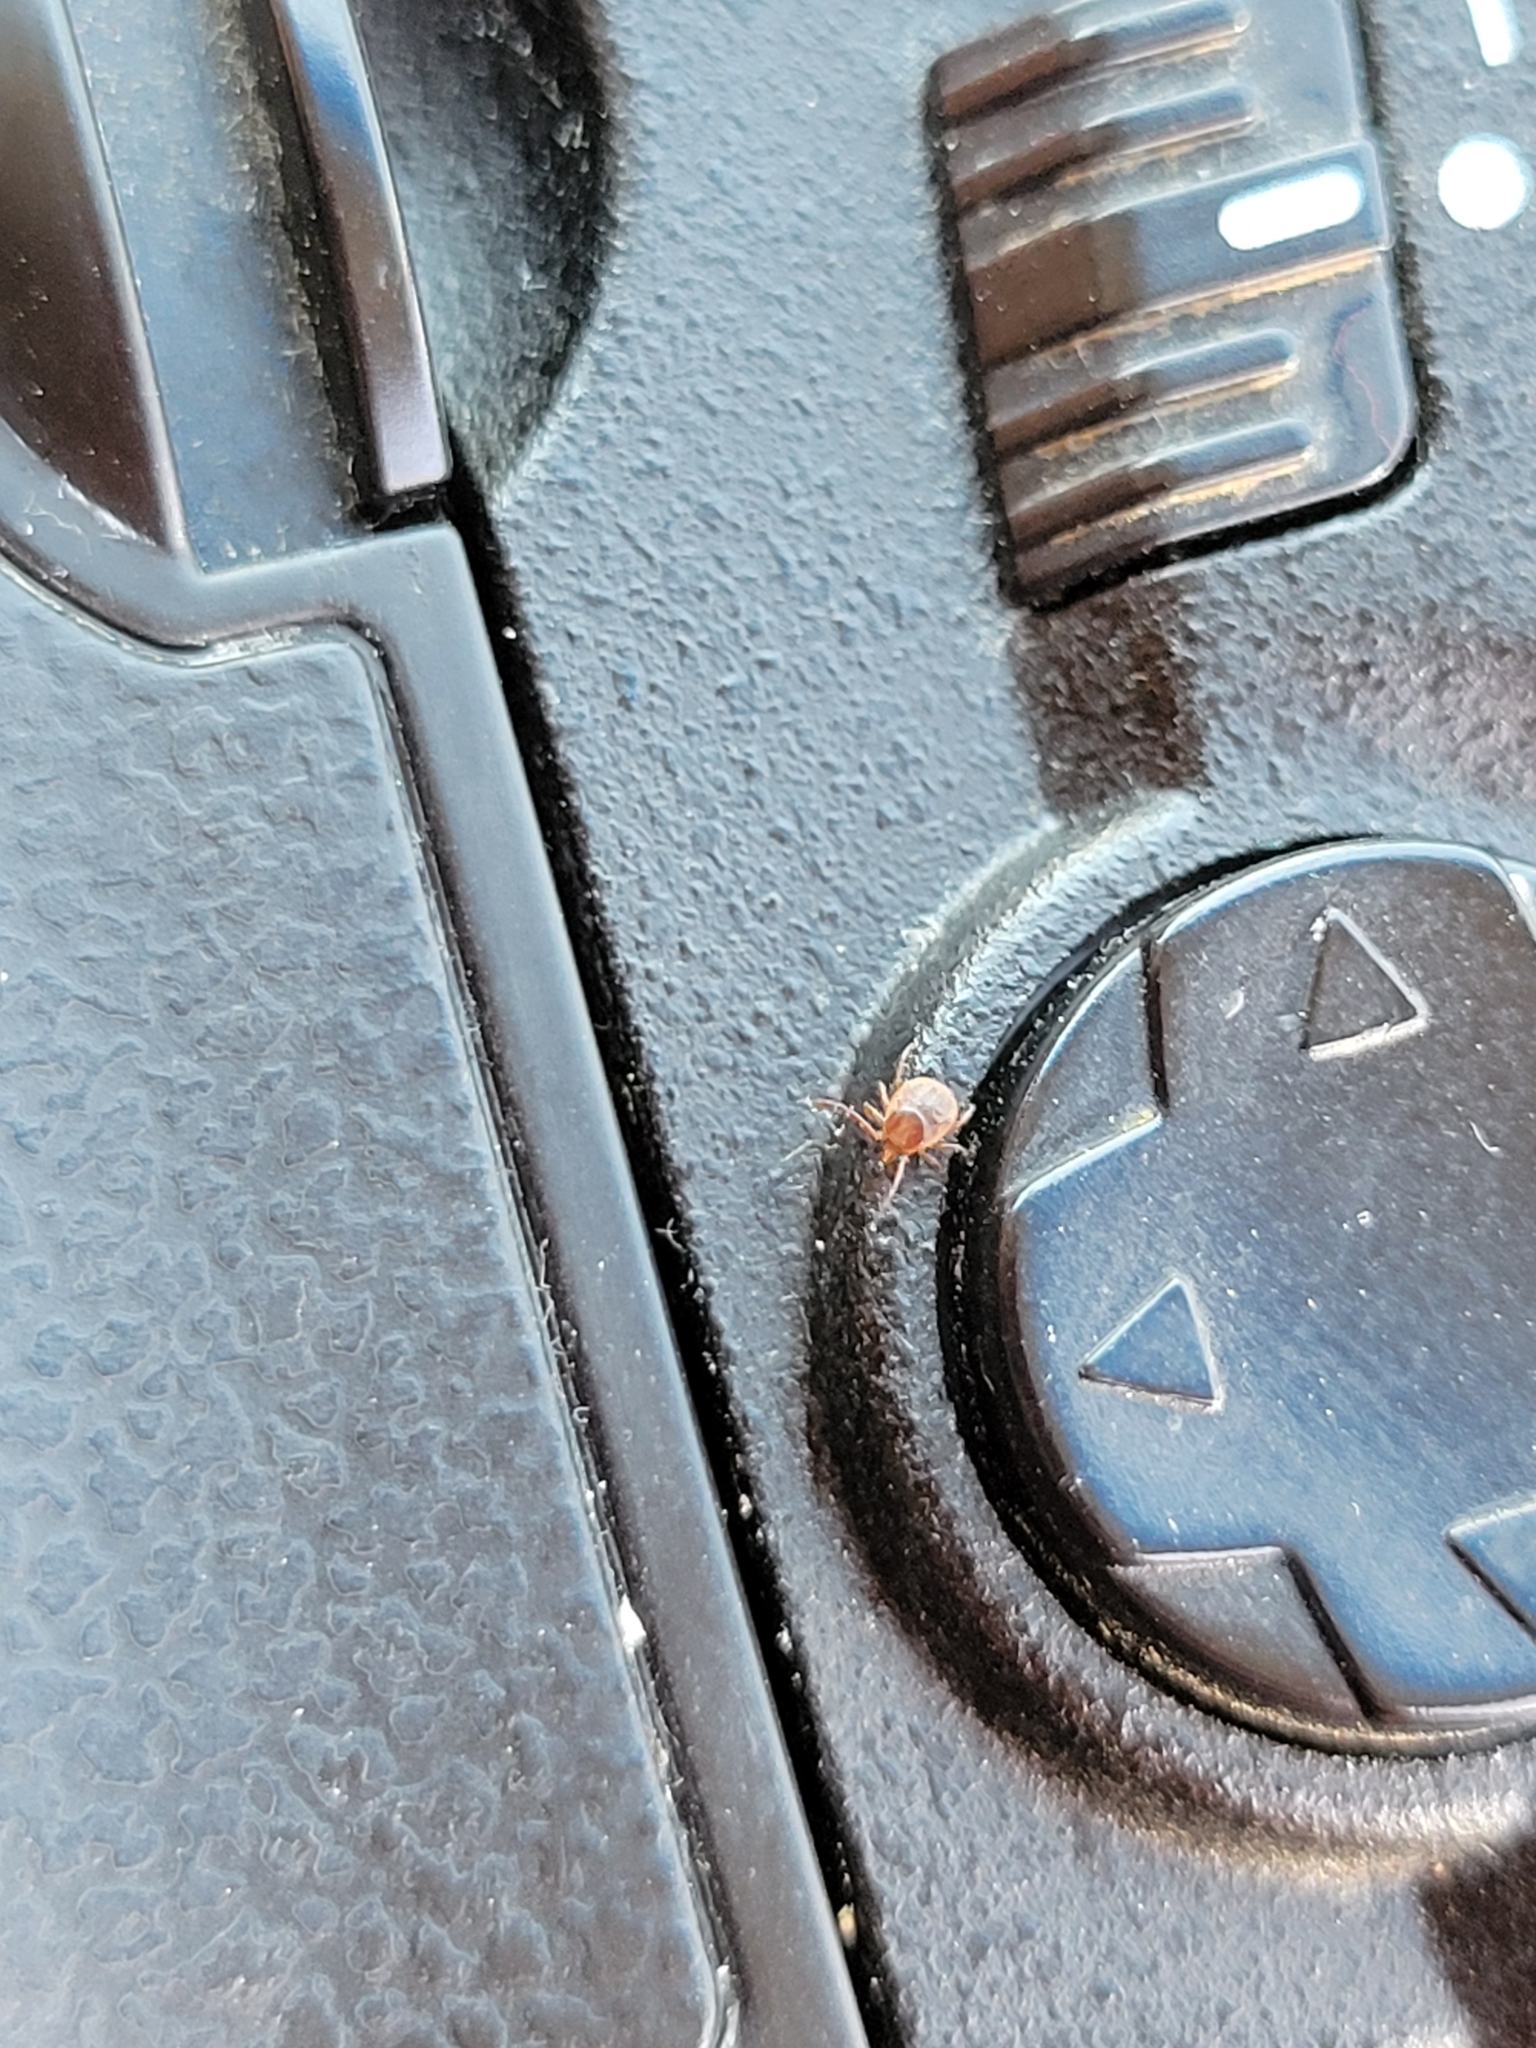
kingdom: Animalia
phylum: Arthropoda
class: Arachnida
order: Ixodida
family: Ixodidae
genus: Amblyomma
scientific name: Amblyomma americanum
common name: Lone star tick
